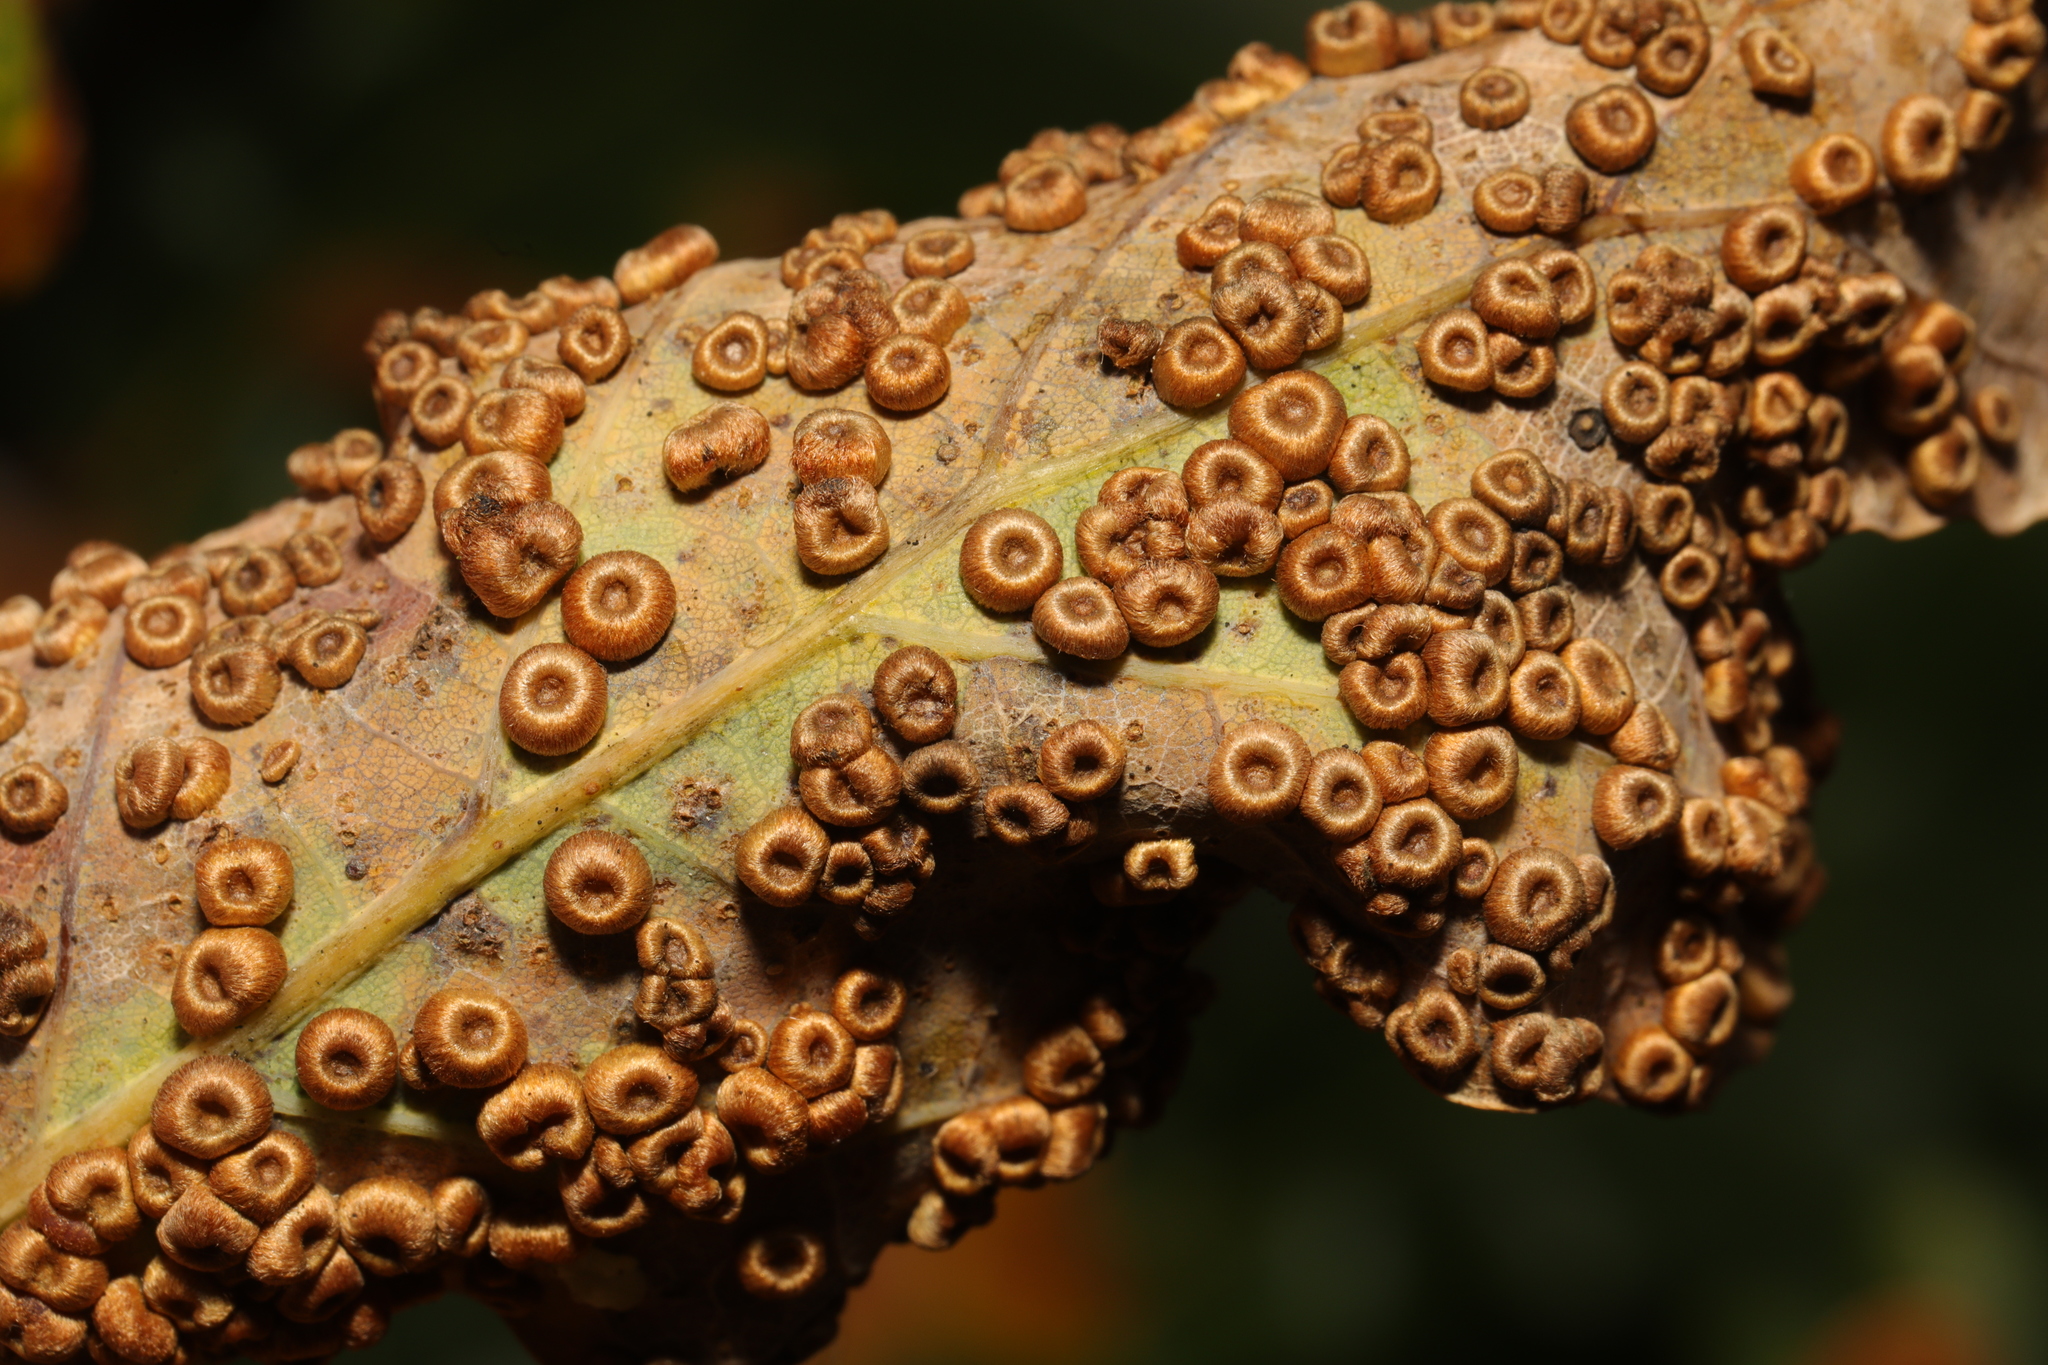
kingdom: Animalia
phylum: Arthropoda
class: Insecta
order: Hymenoptera
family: Cynipidae
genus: Neuroterus
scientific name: Neuroterus numismalis
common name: Silk-button spangle gall
